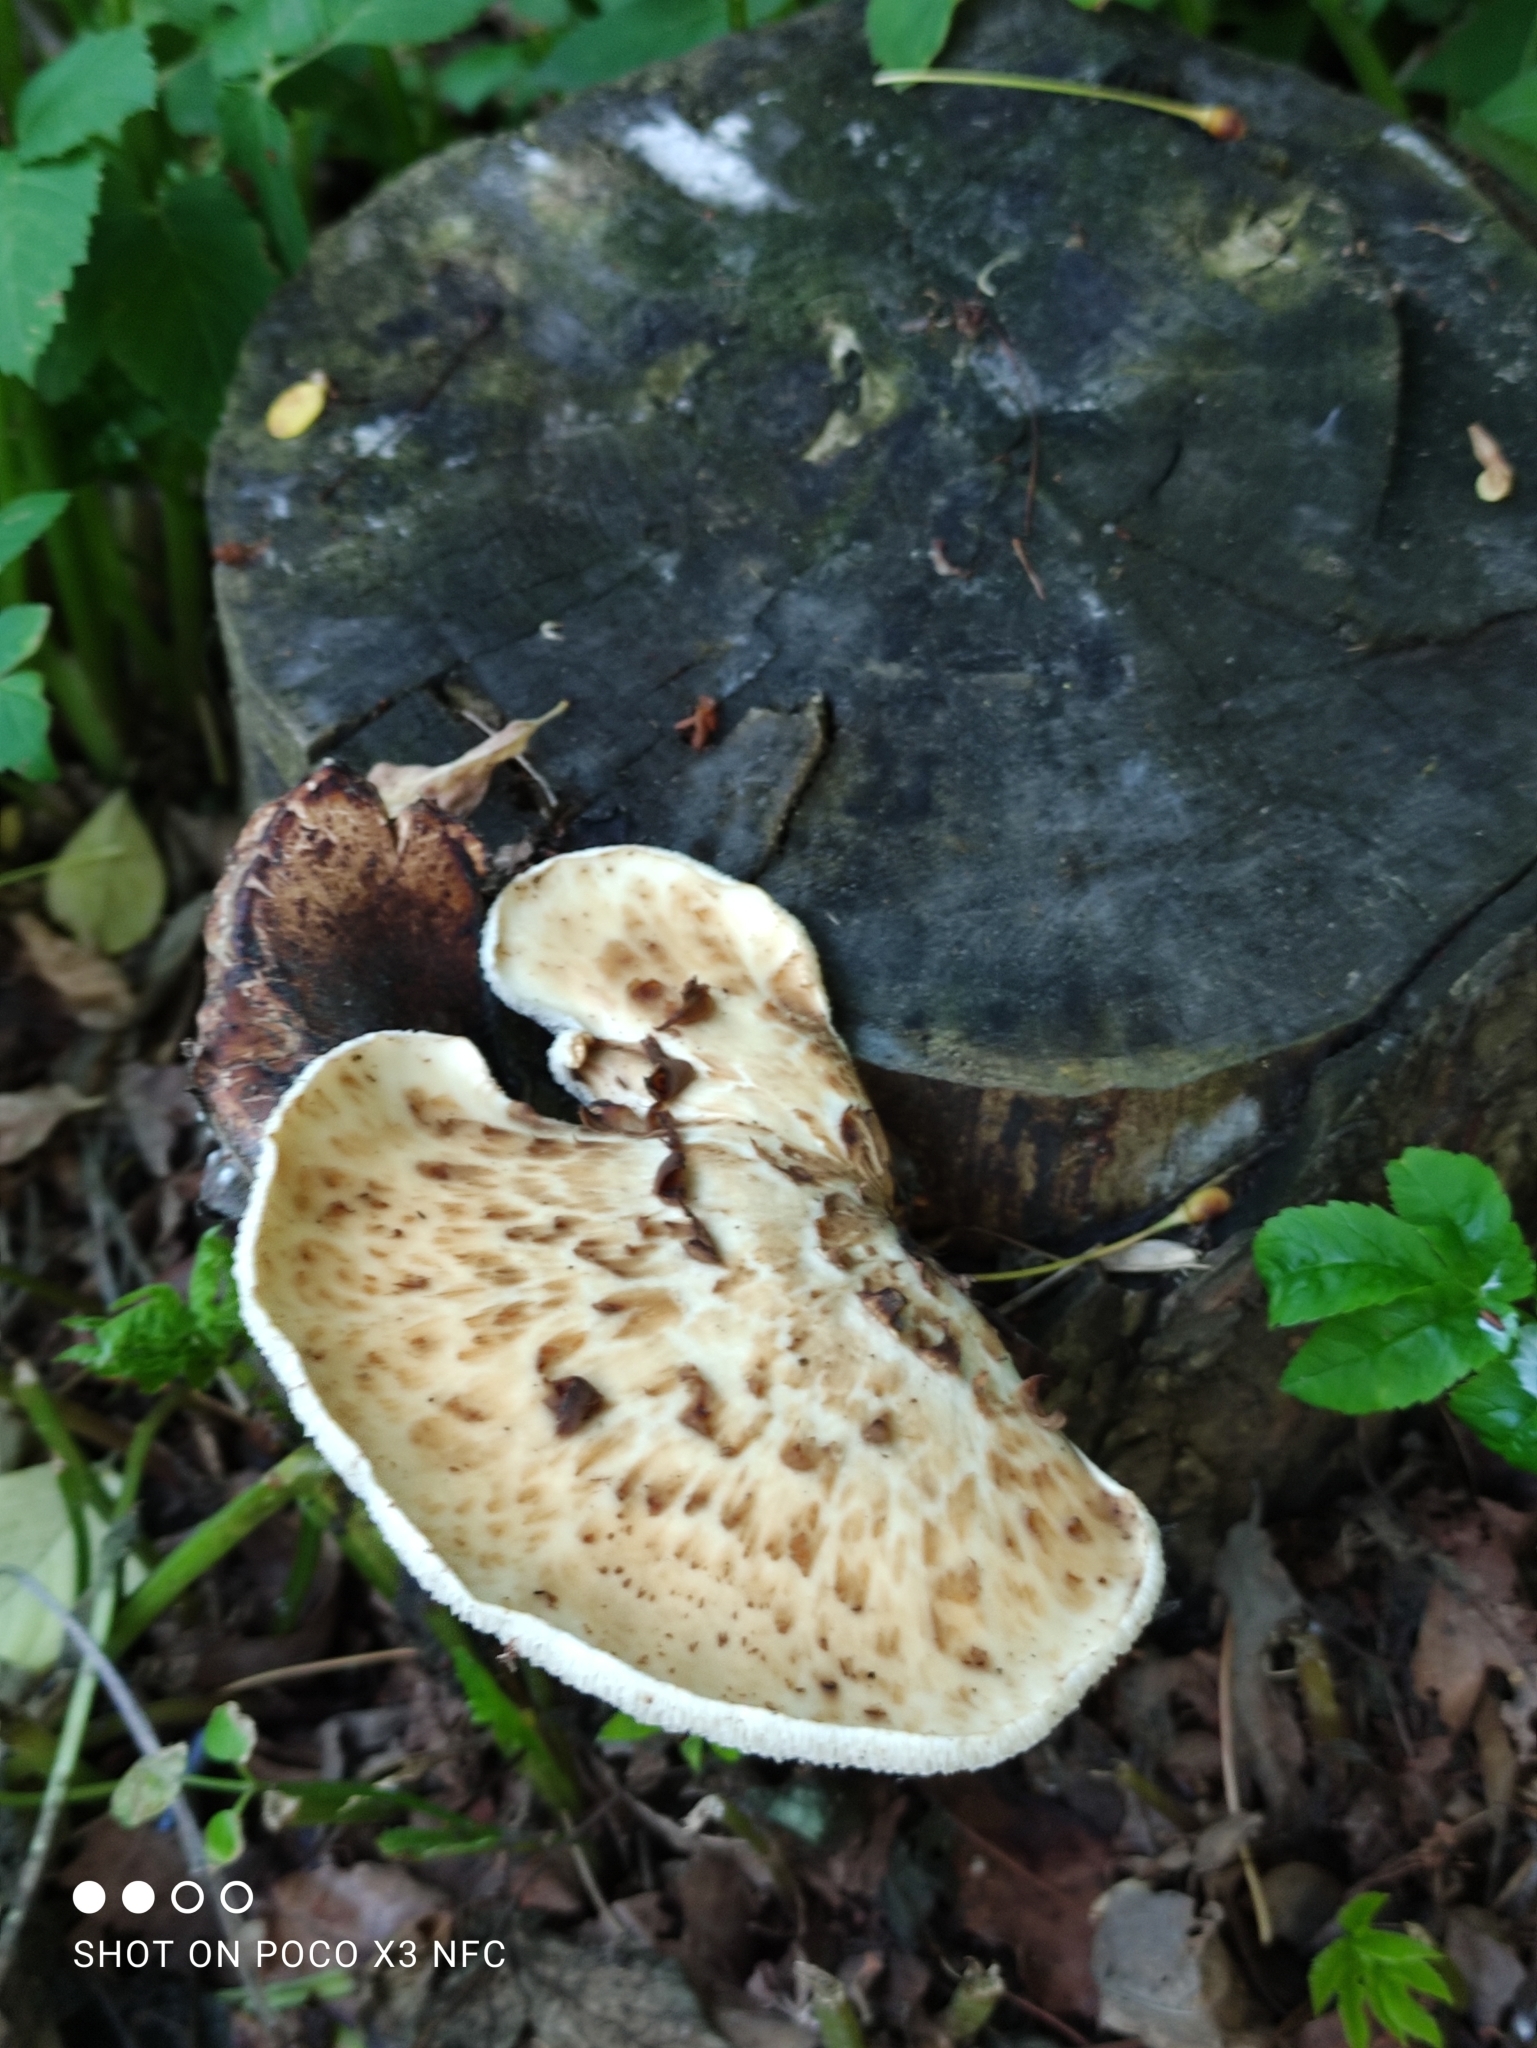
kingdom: Fungi
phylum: Basidiomycota
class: Agaricomycetes
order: Polyporales
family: Polyporaceae
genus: Cerioporus
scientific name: Cerioporus squamosus
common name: Dryad's saddle
